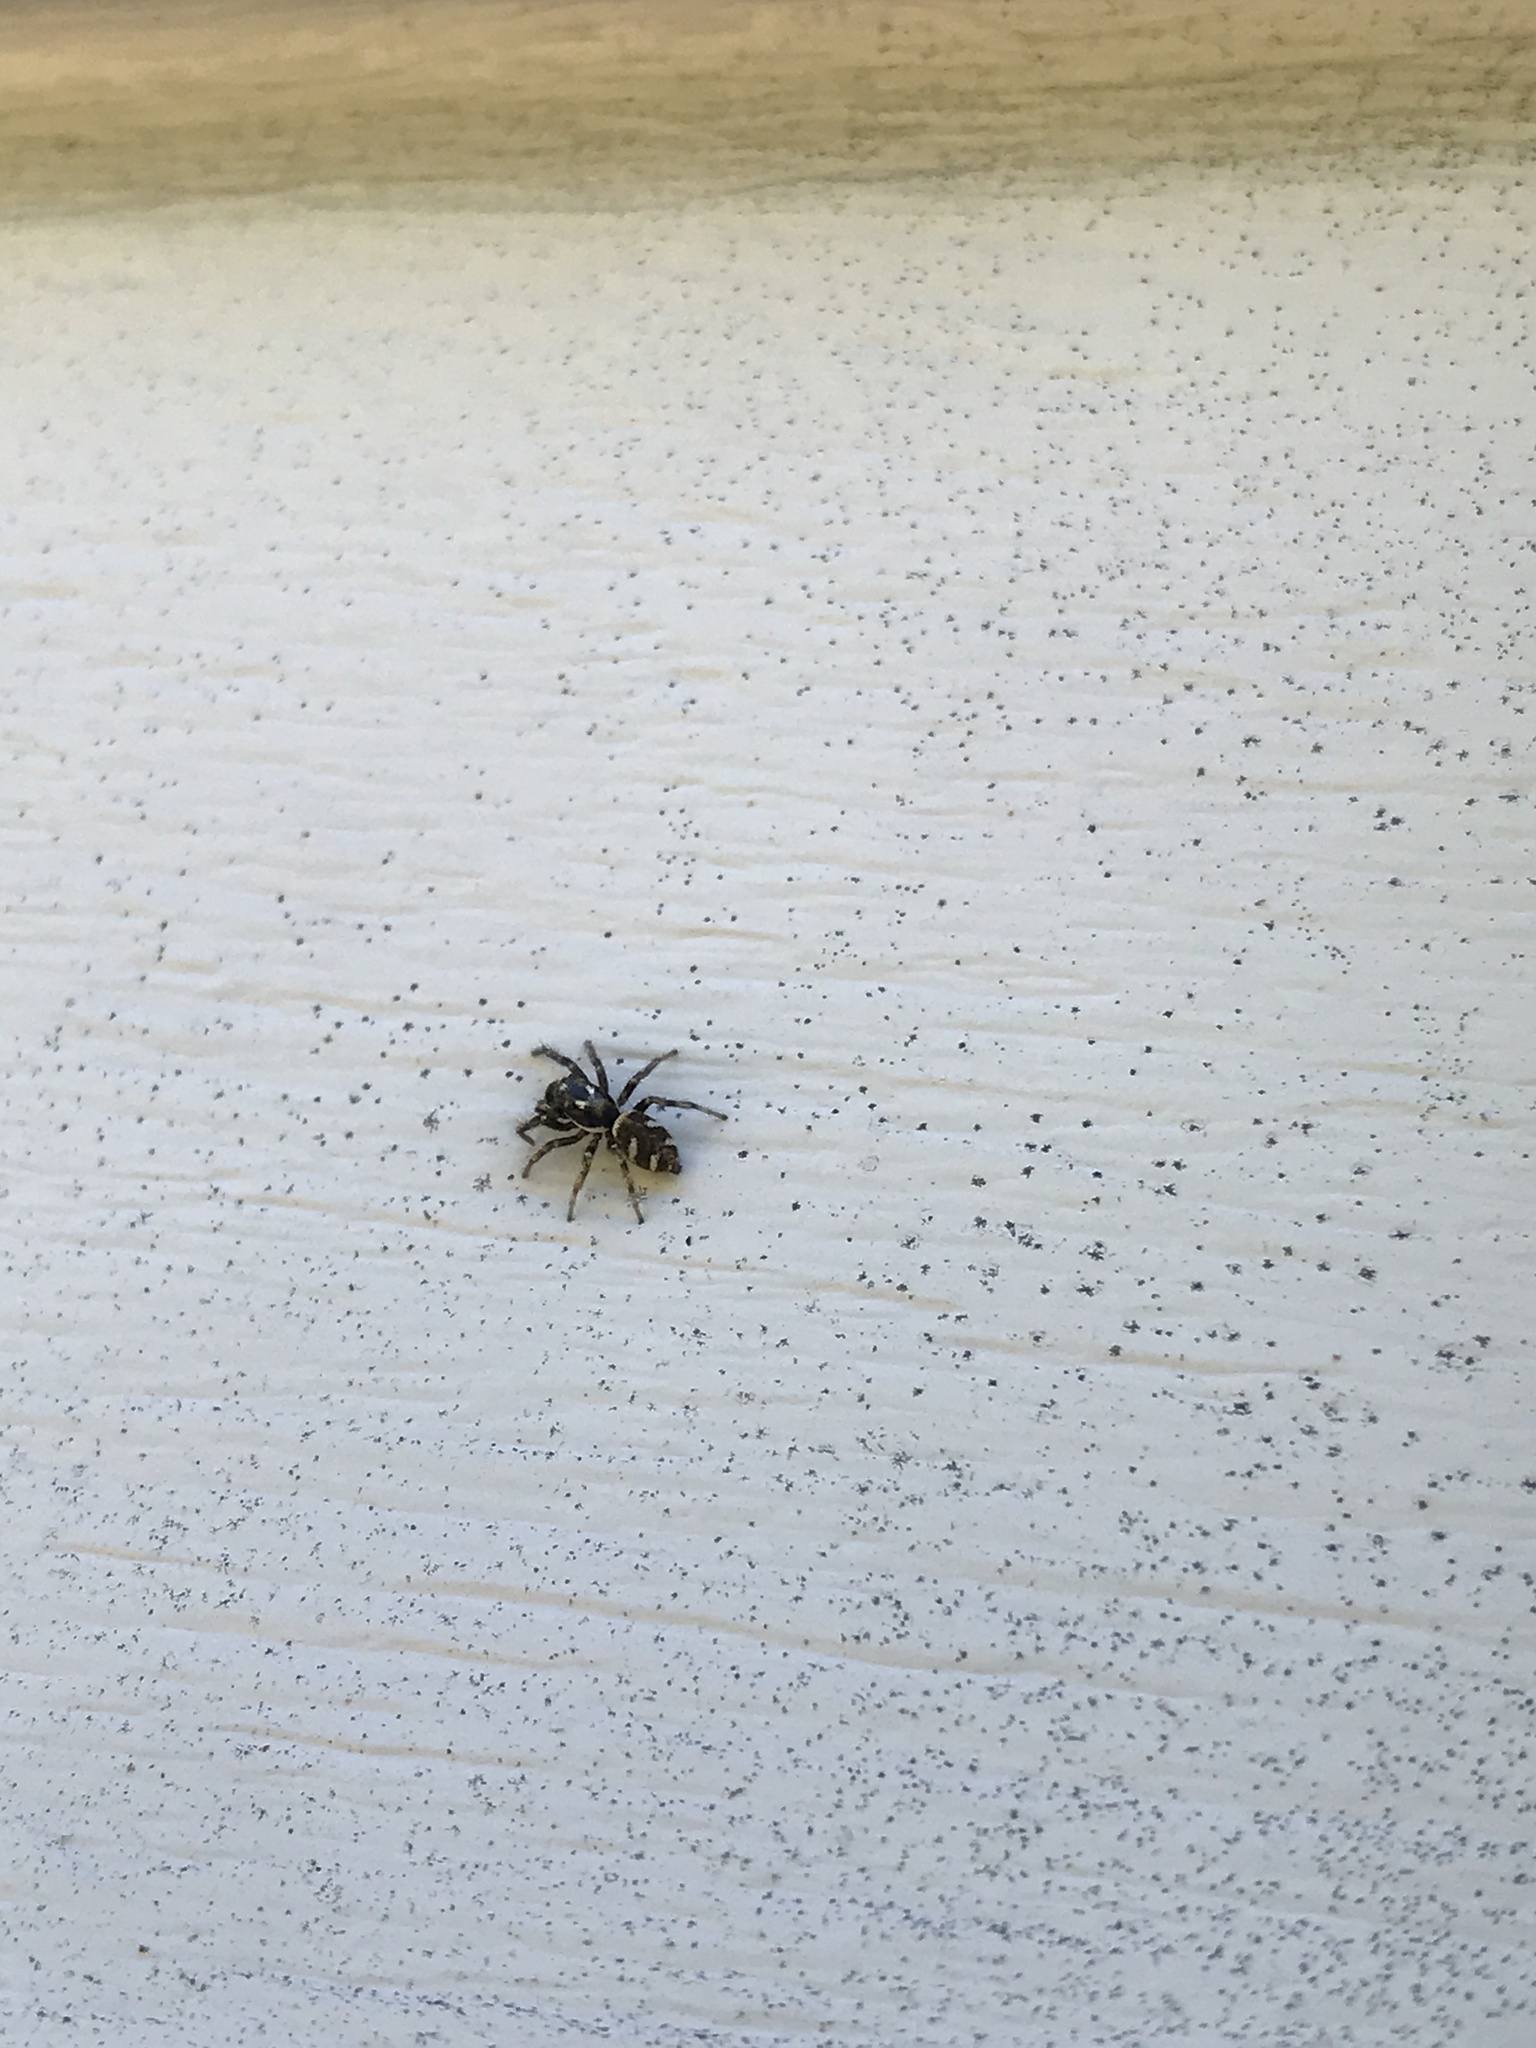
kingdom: Animalia
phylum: Arthropoda
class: Arachnida
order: Araneae
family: Salticidae
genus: Salticus
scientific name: Salticus scenicus
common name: Zebra jumper
